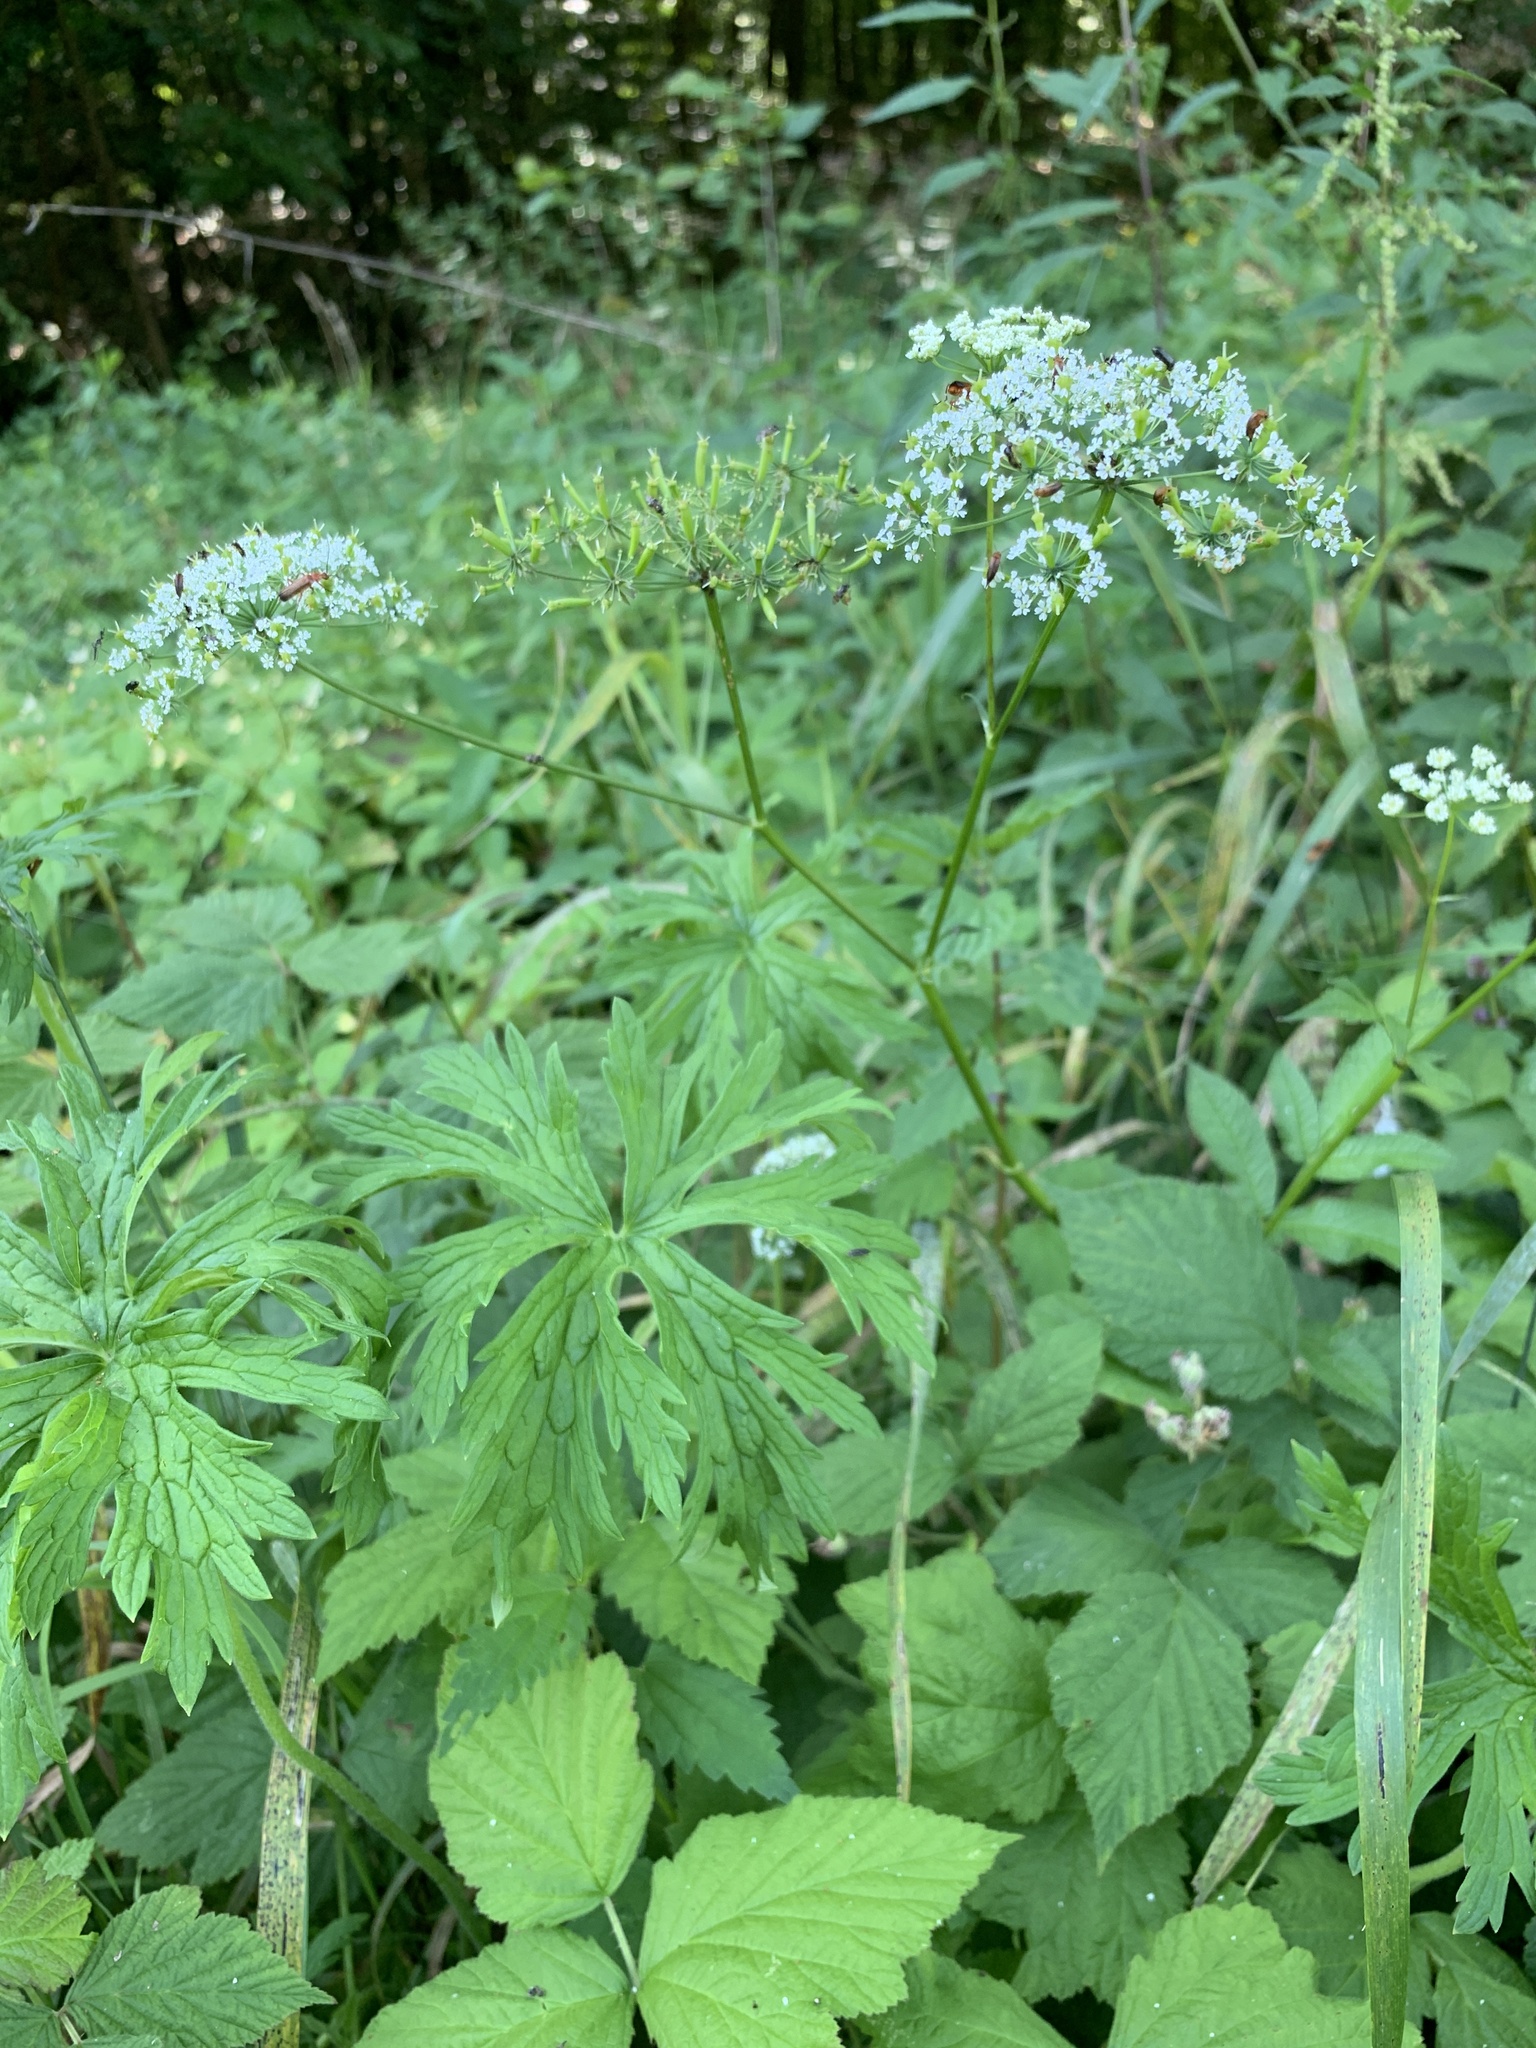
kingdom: Plantae
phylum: Tracheophyta
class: Magnoliopsida
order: Apiales
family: Apiaceae
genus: Chaerophyllum
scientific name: Chaerophyllum aromaticum
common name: Broadleaf chervil
